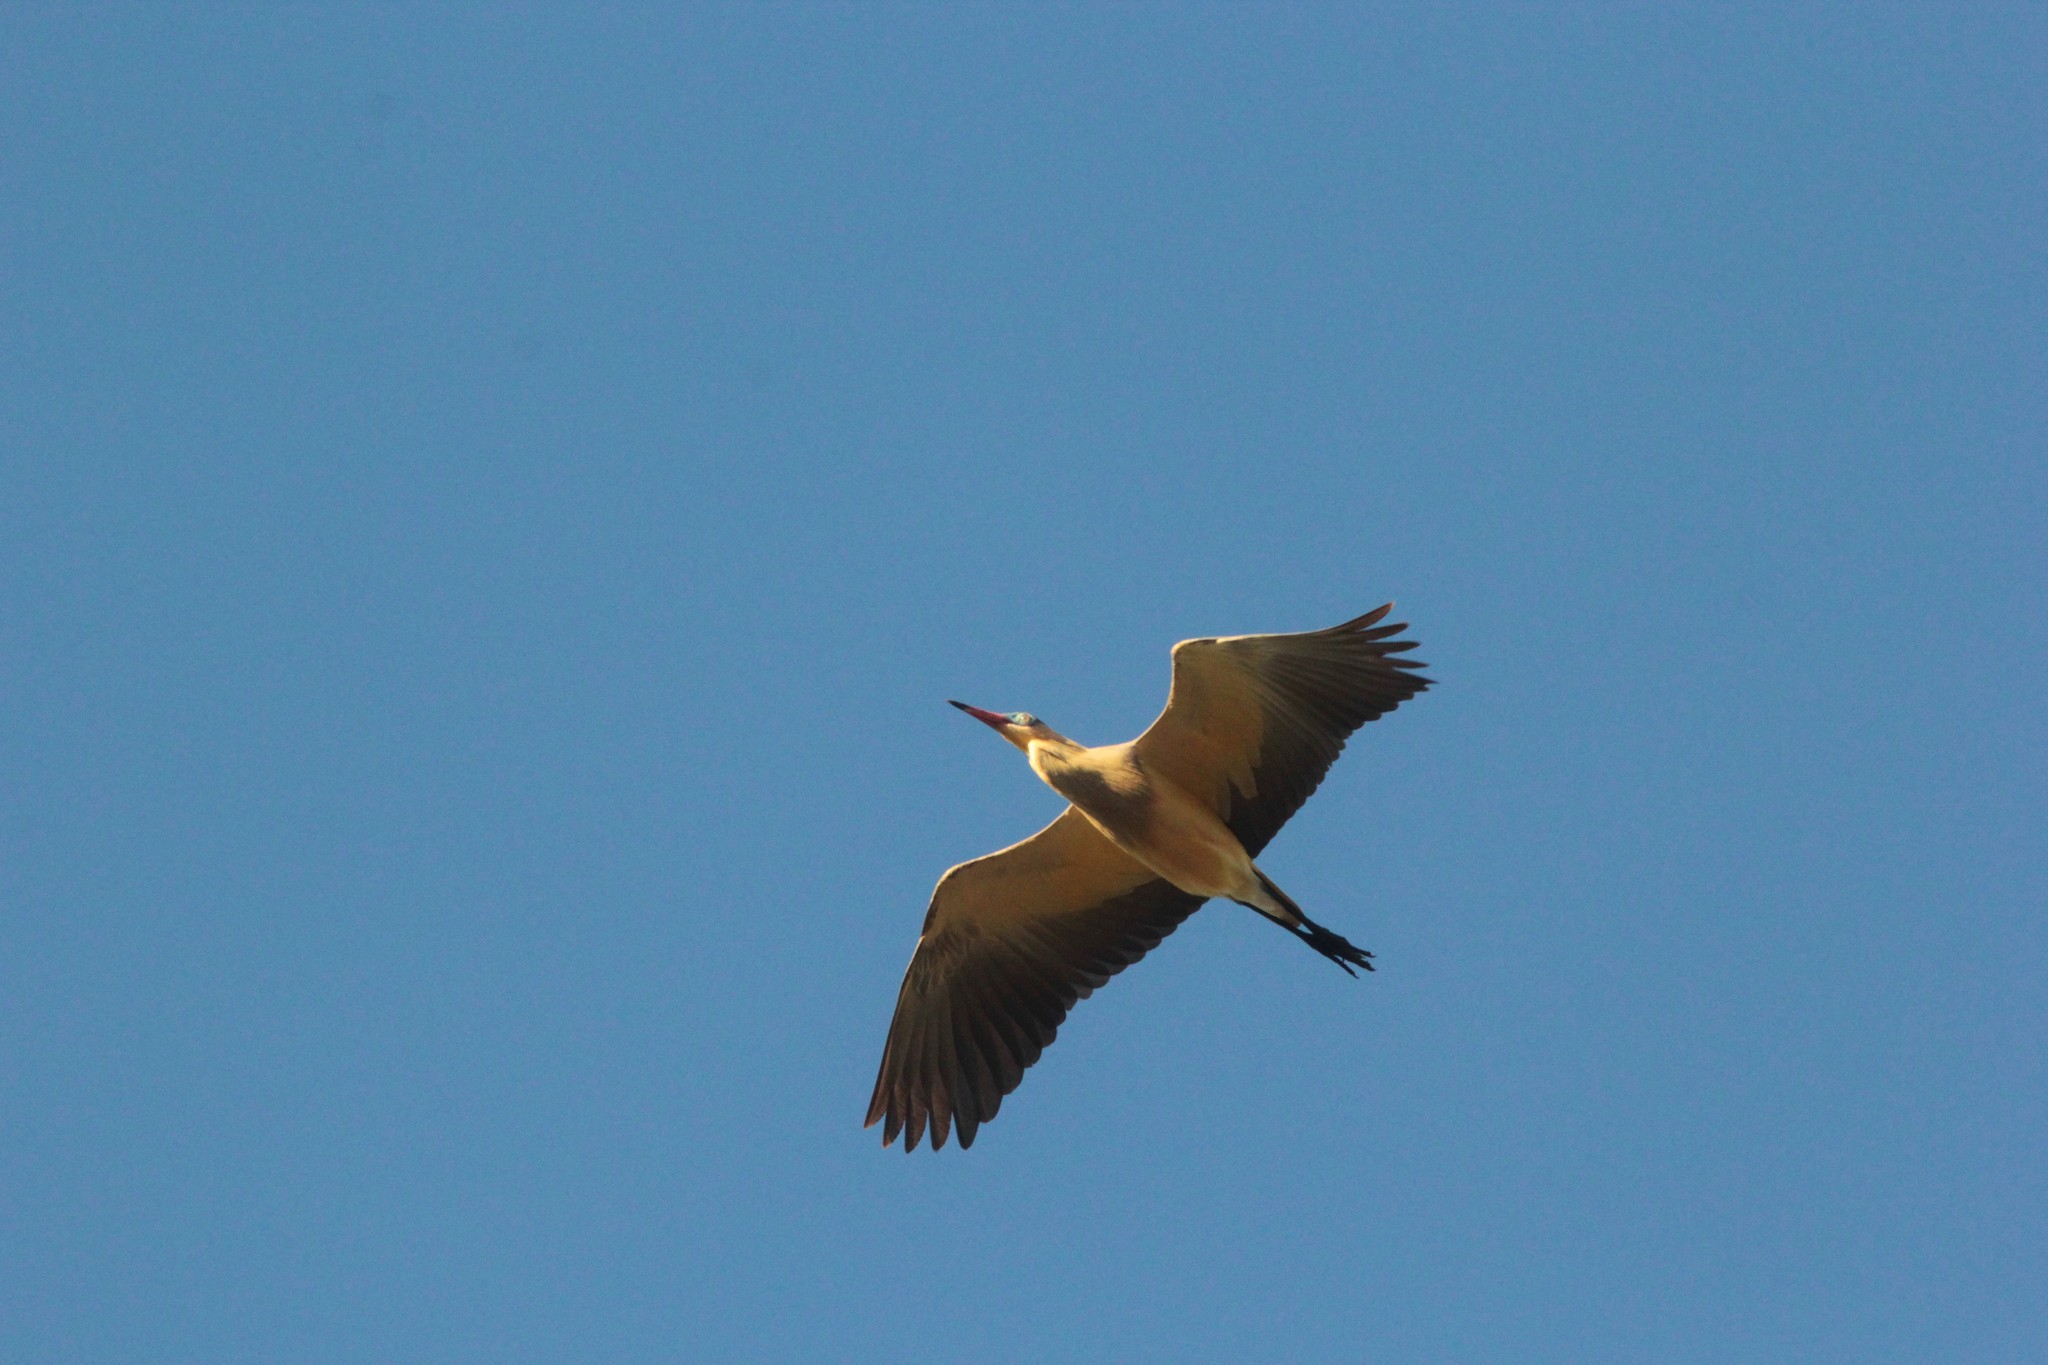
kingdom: Animalia
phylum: Chordata
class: Aves
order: Pelecaniformes
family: Ardeidae
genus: Syrigma
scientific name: Syrigma sibilatrix
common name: Whistling heron
